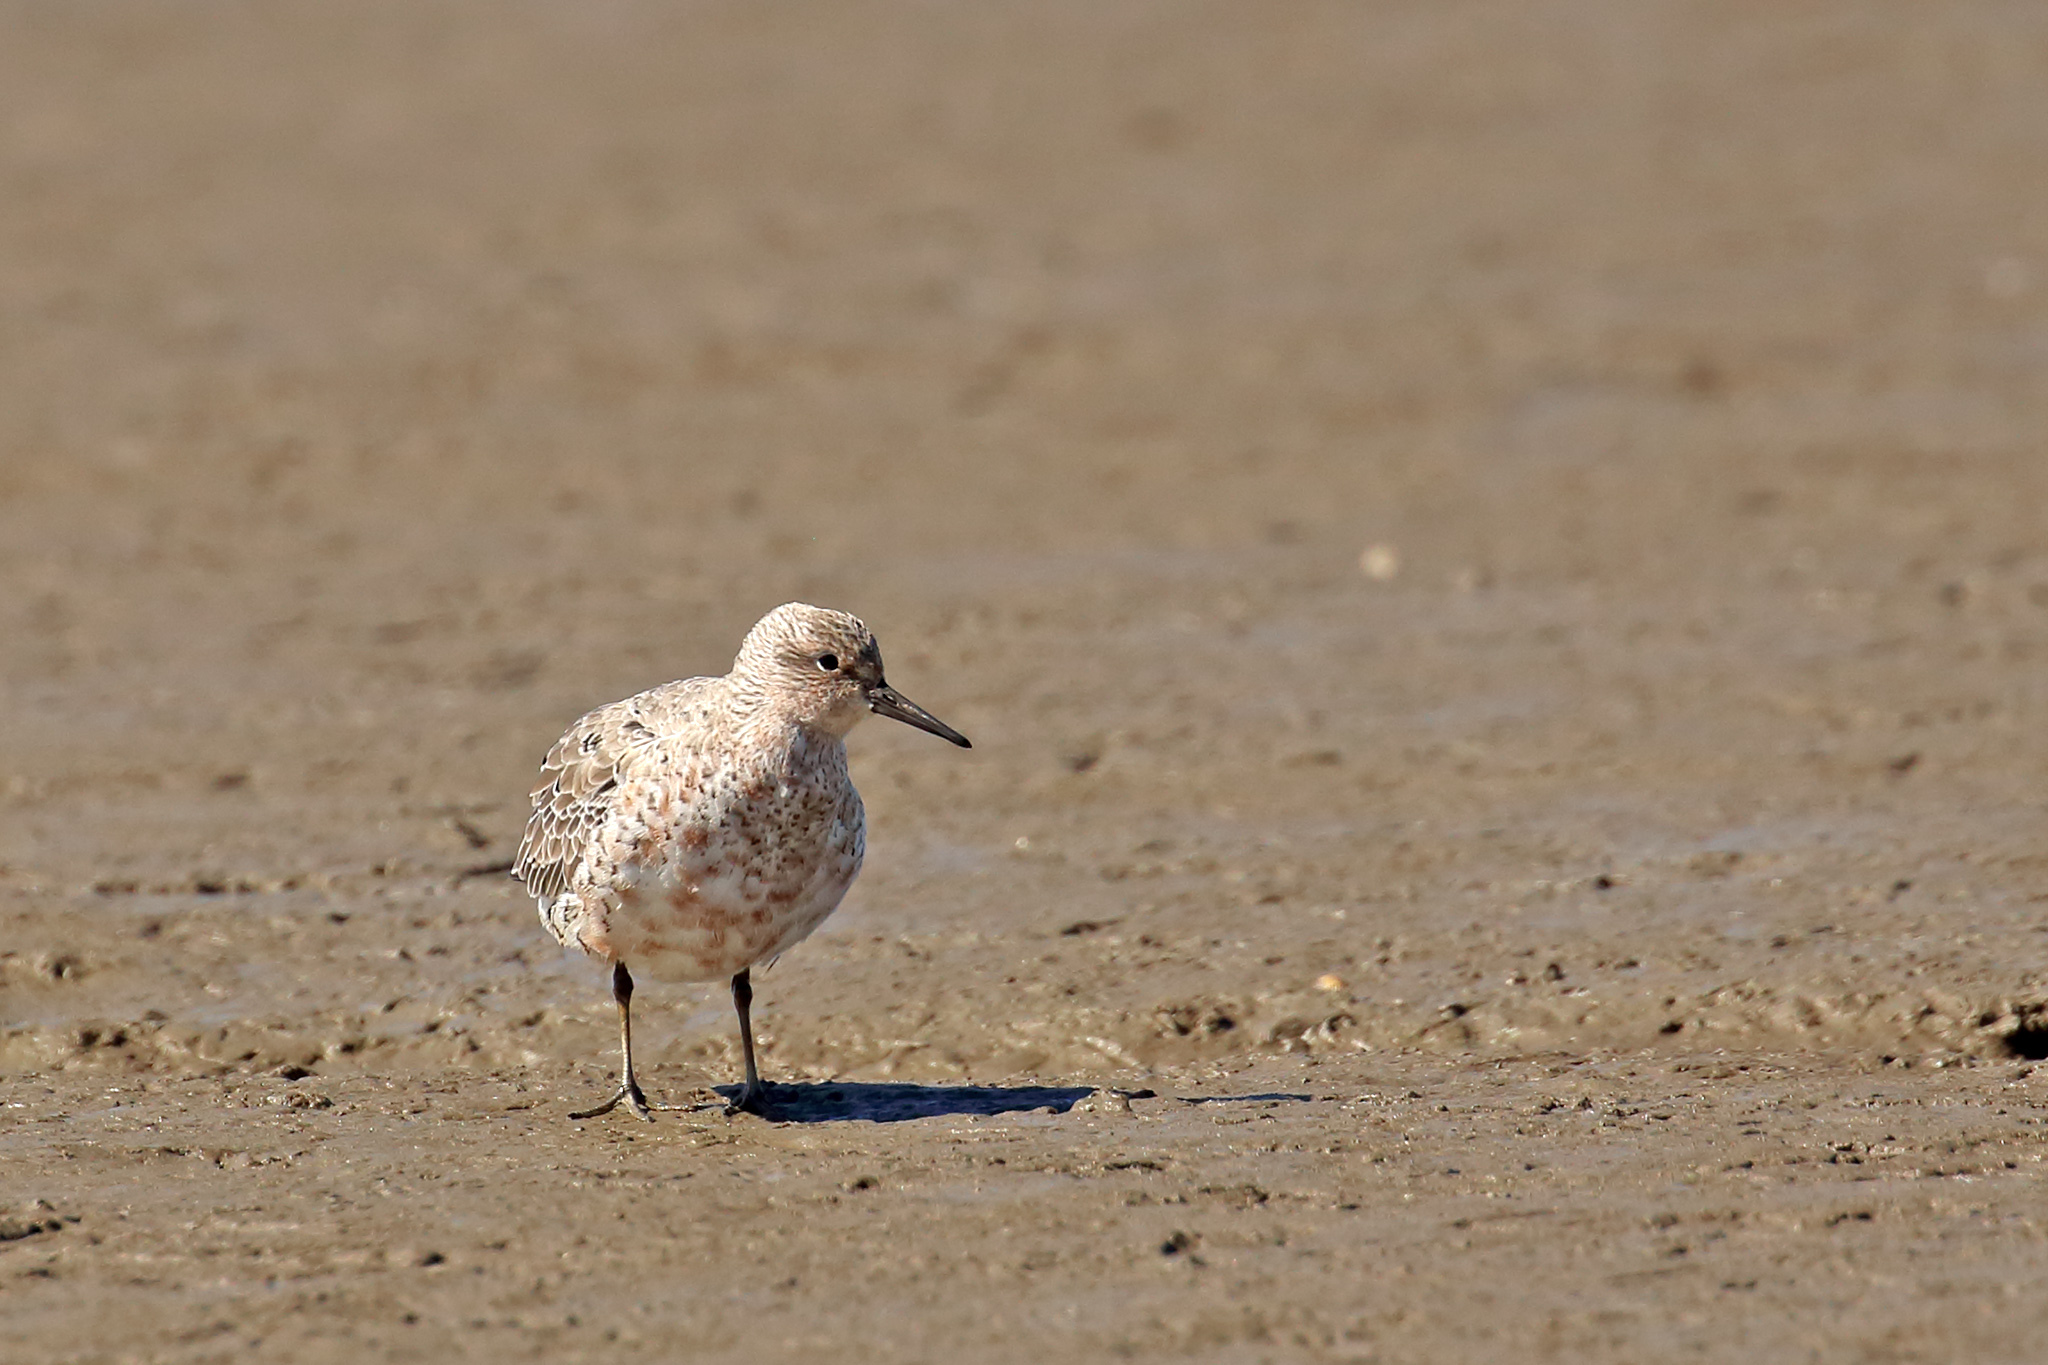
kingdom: Animalia
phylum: Chordata
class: Aves
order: Charadriiformes
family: Scolopacidae
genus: Calidris
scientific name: Calidris canutus
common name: Red knot
